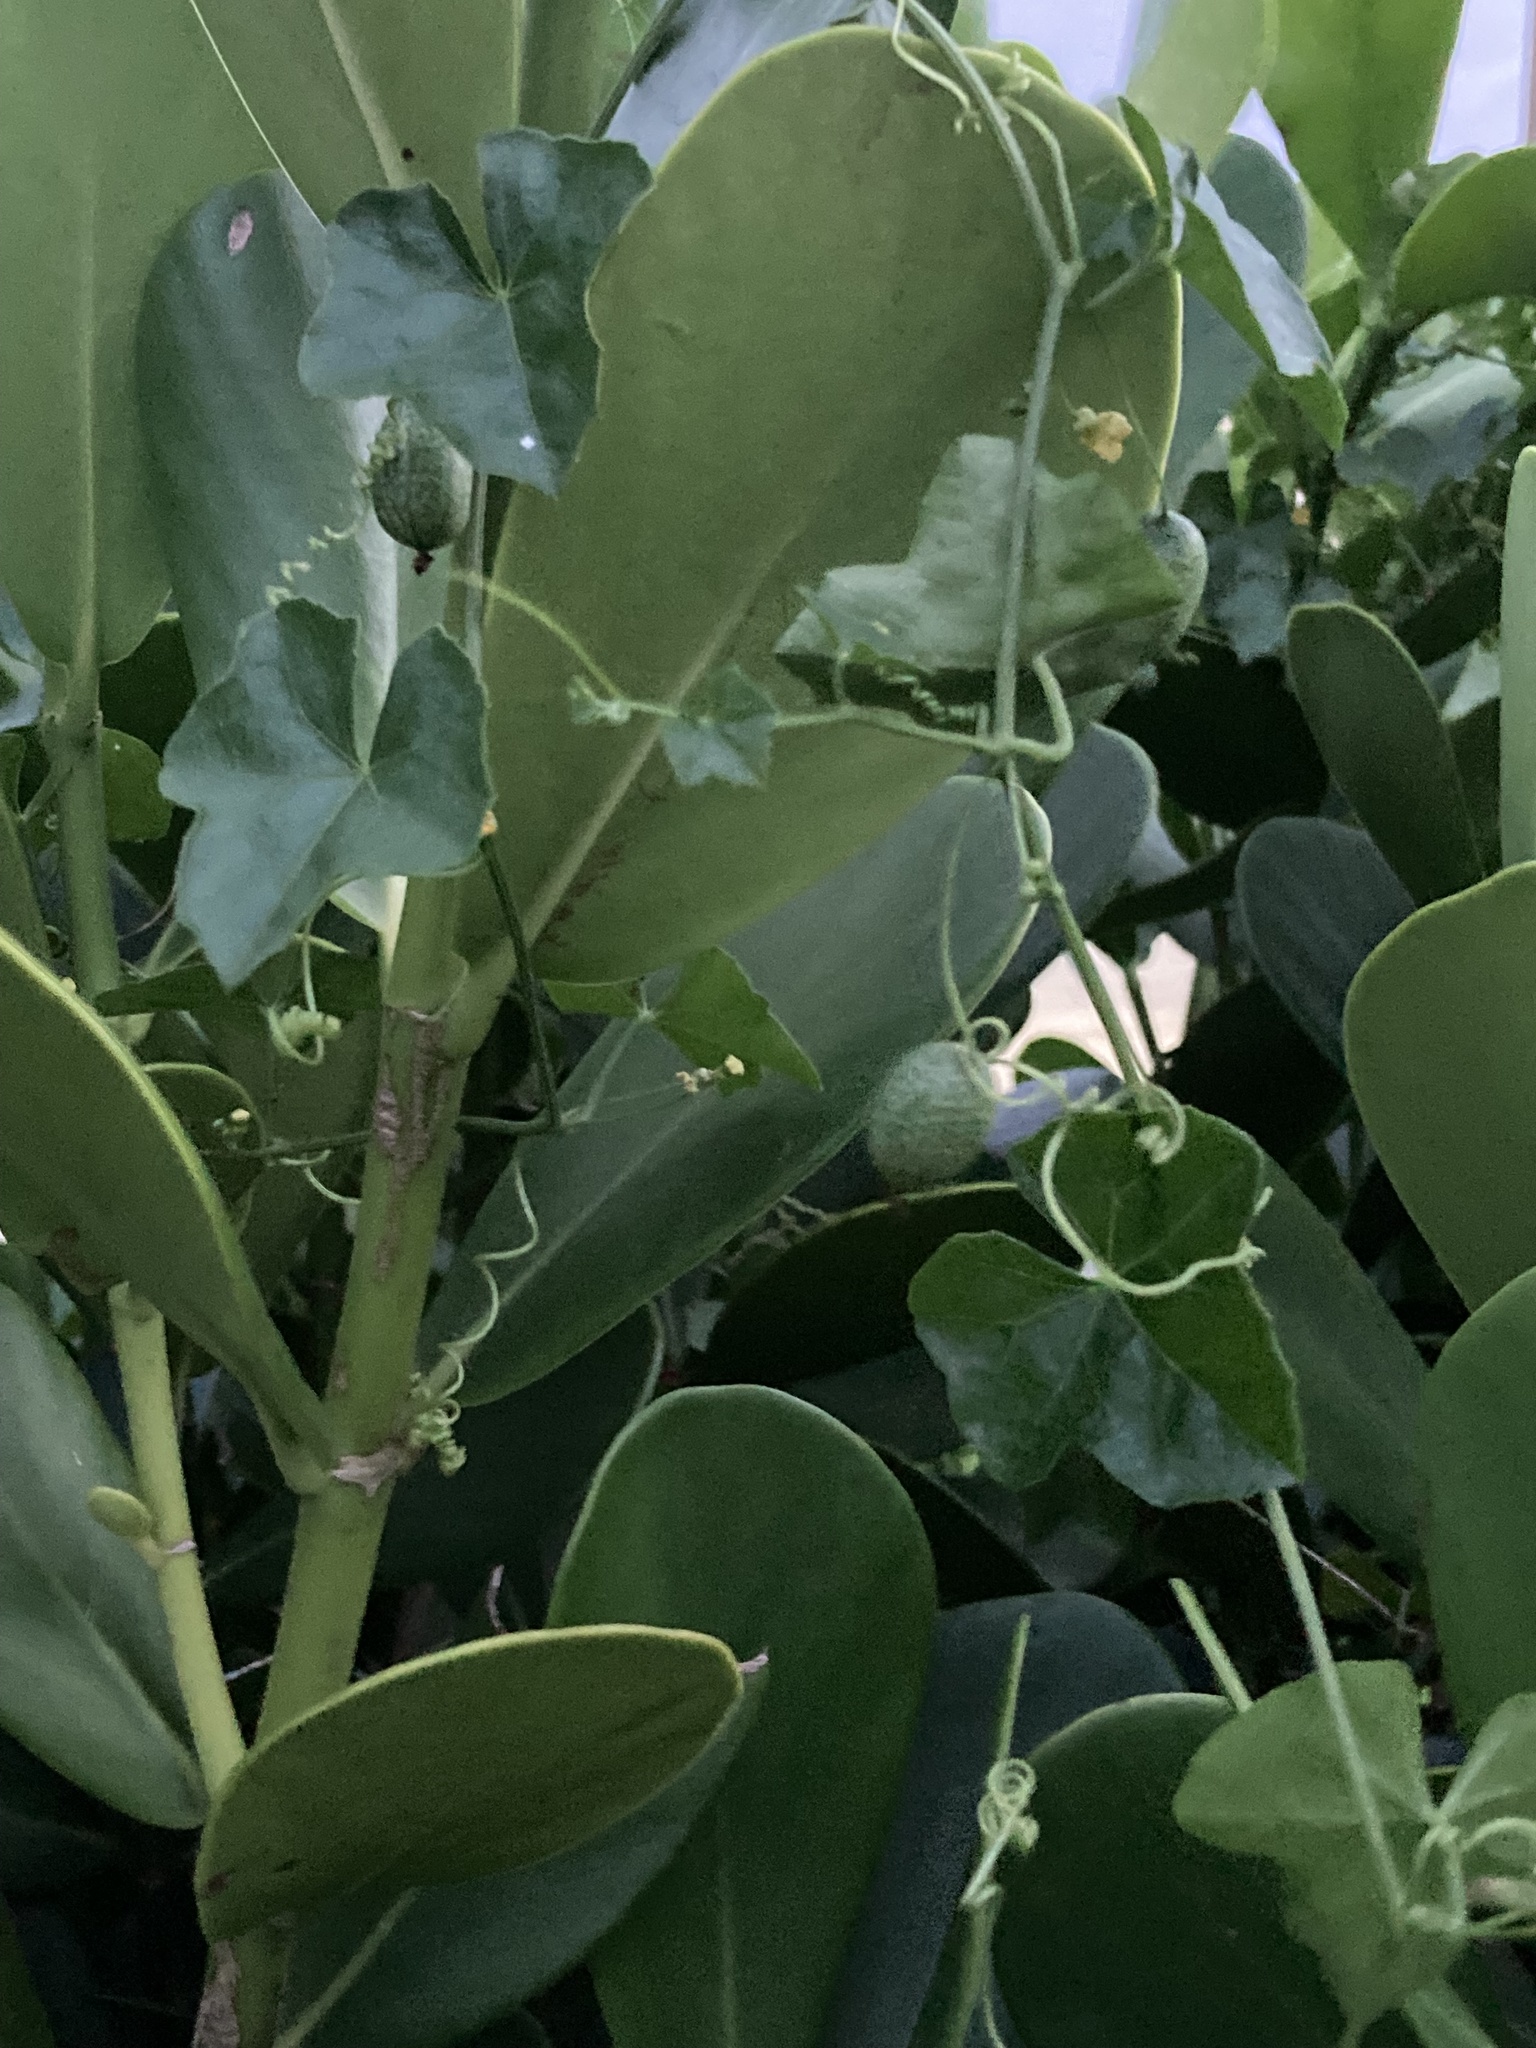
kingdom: Plantae
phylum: Tracheophyta
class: Magnoliopsida
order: Cucurbitales
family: Cucurbitaceae
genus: Melothria
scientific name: Melothria pendula
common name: Creeping-cucumber
